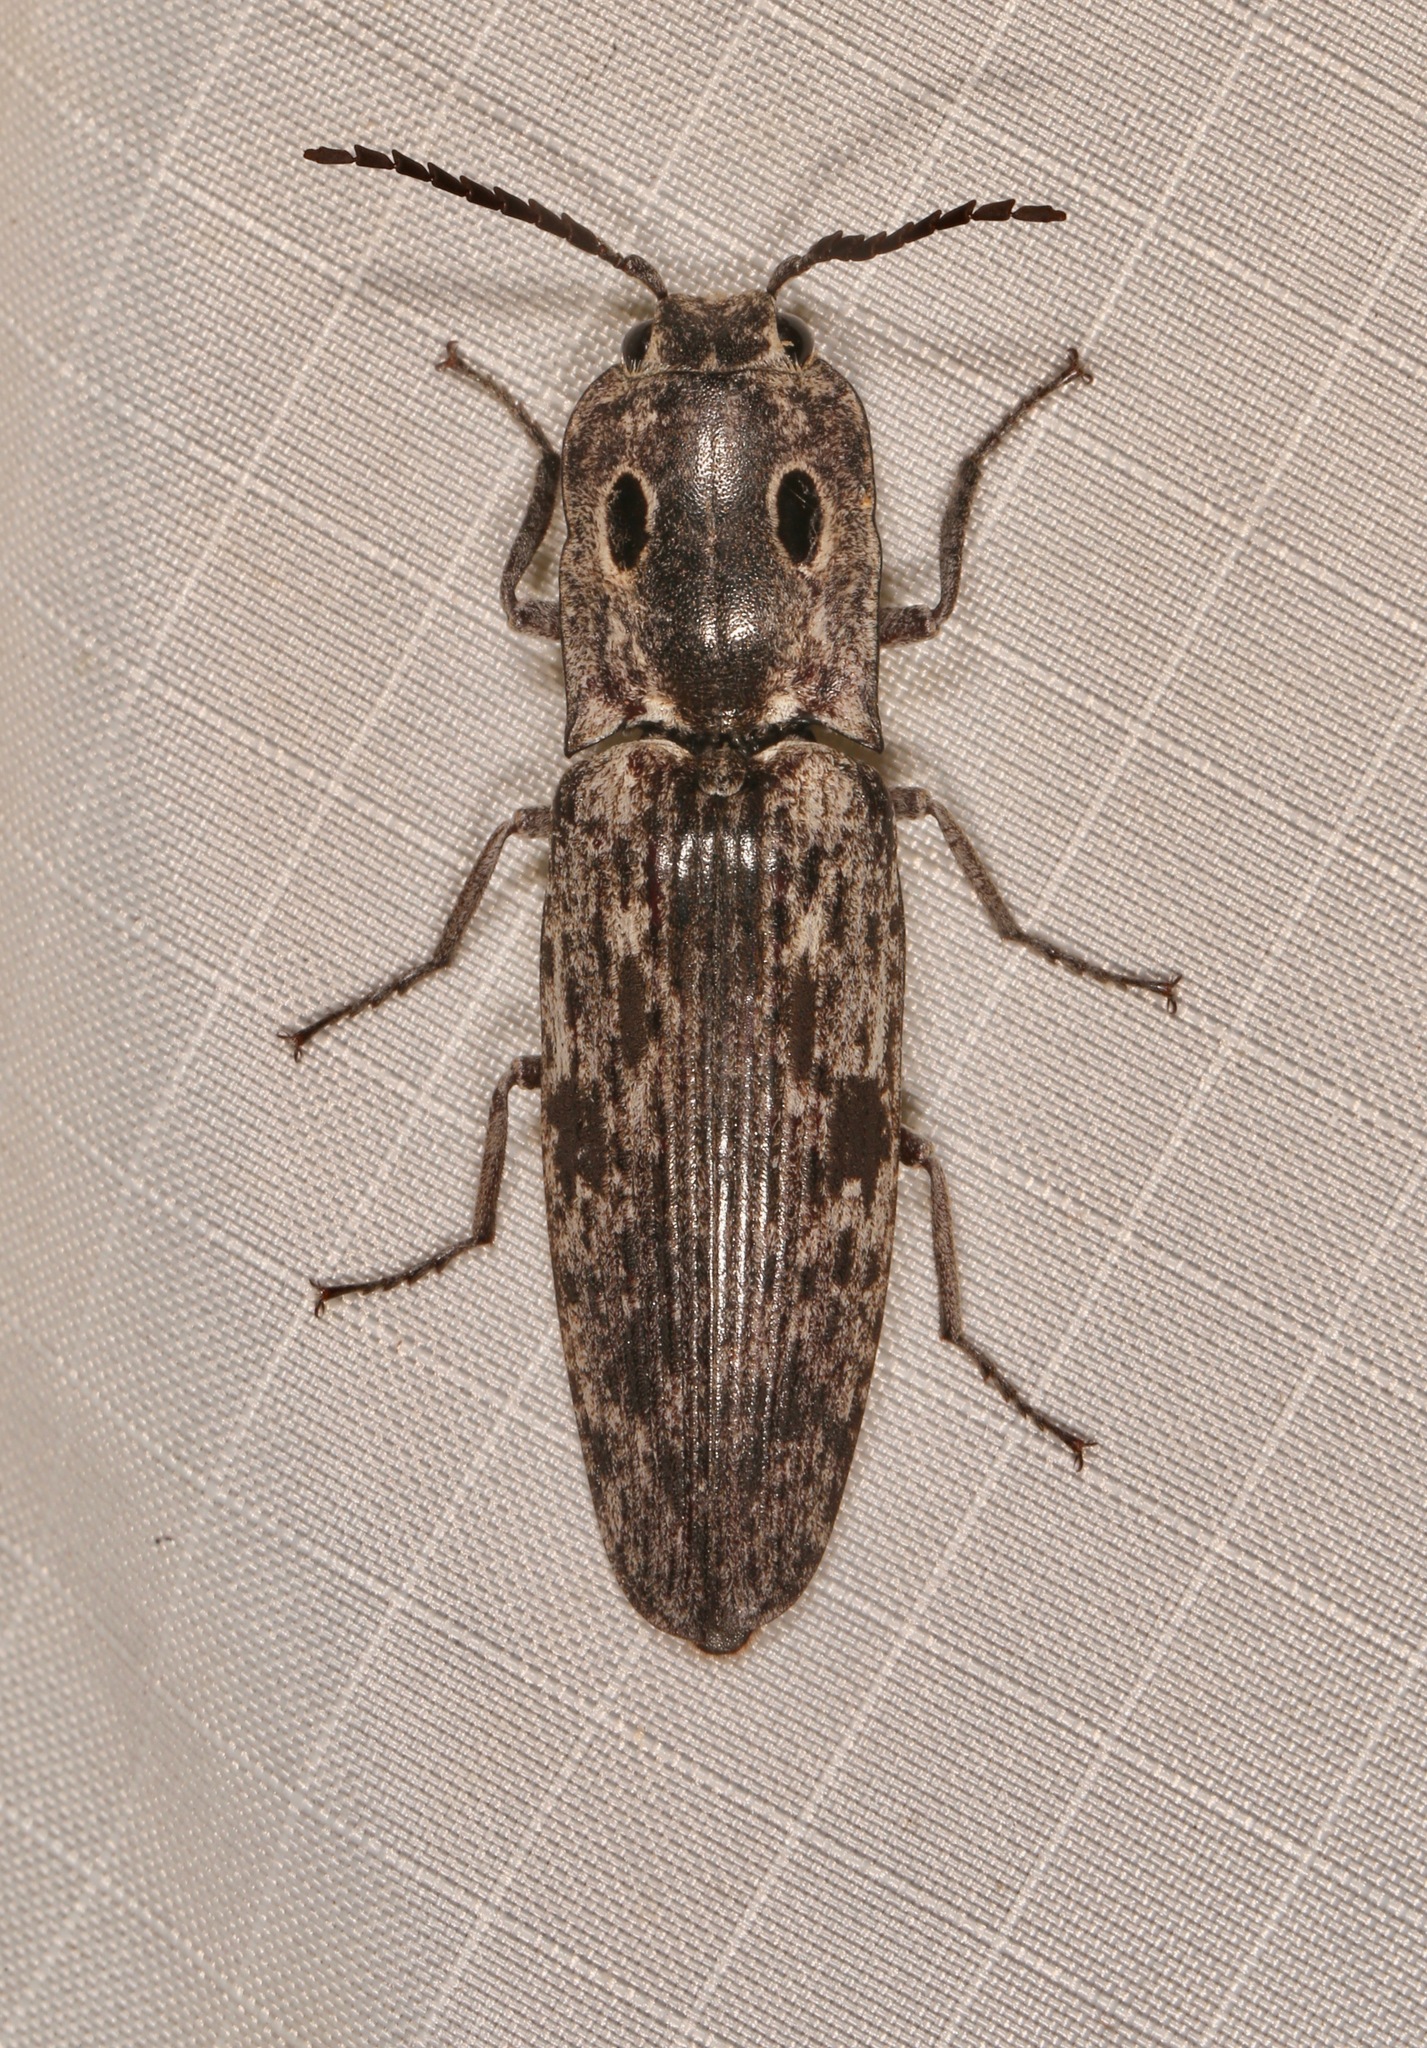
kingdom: Animalia
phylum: Arthropoda
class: Insecta
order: Coleoptera
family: Elateridae
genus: Alaus
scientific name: Alaus myops
